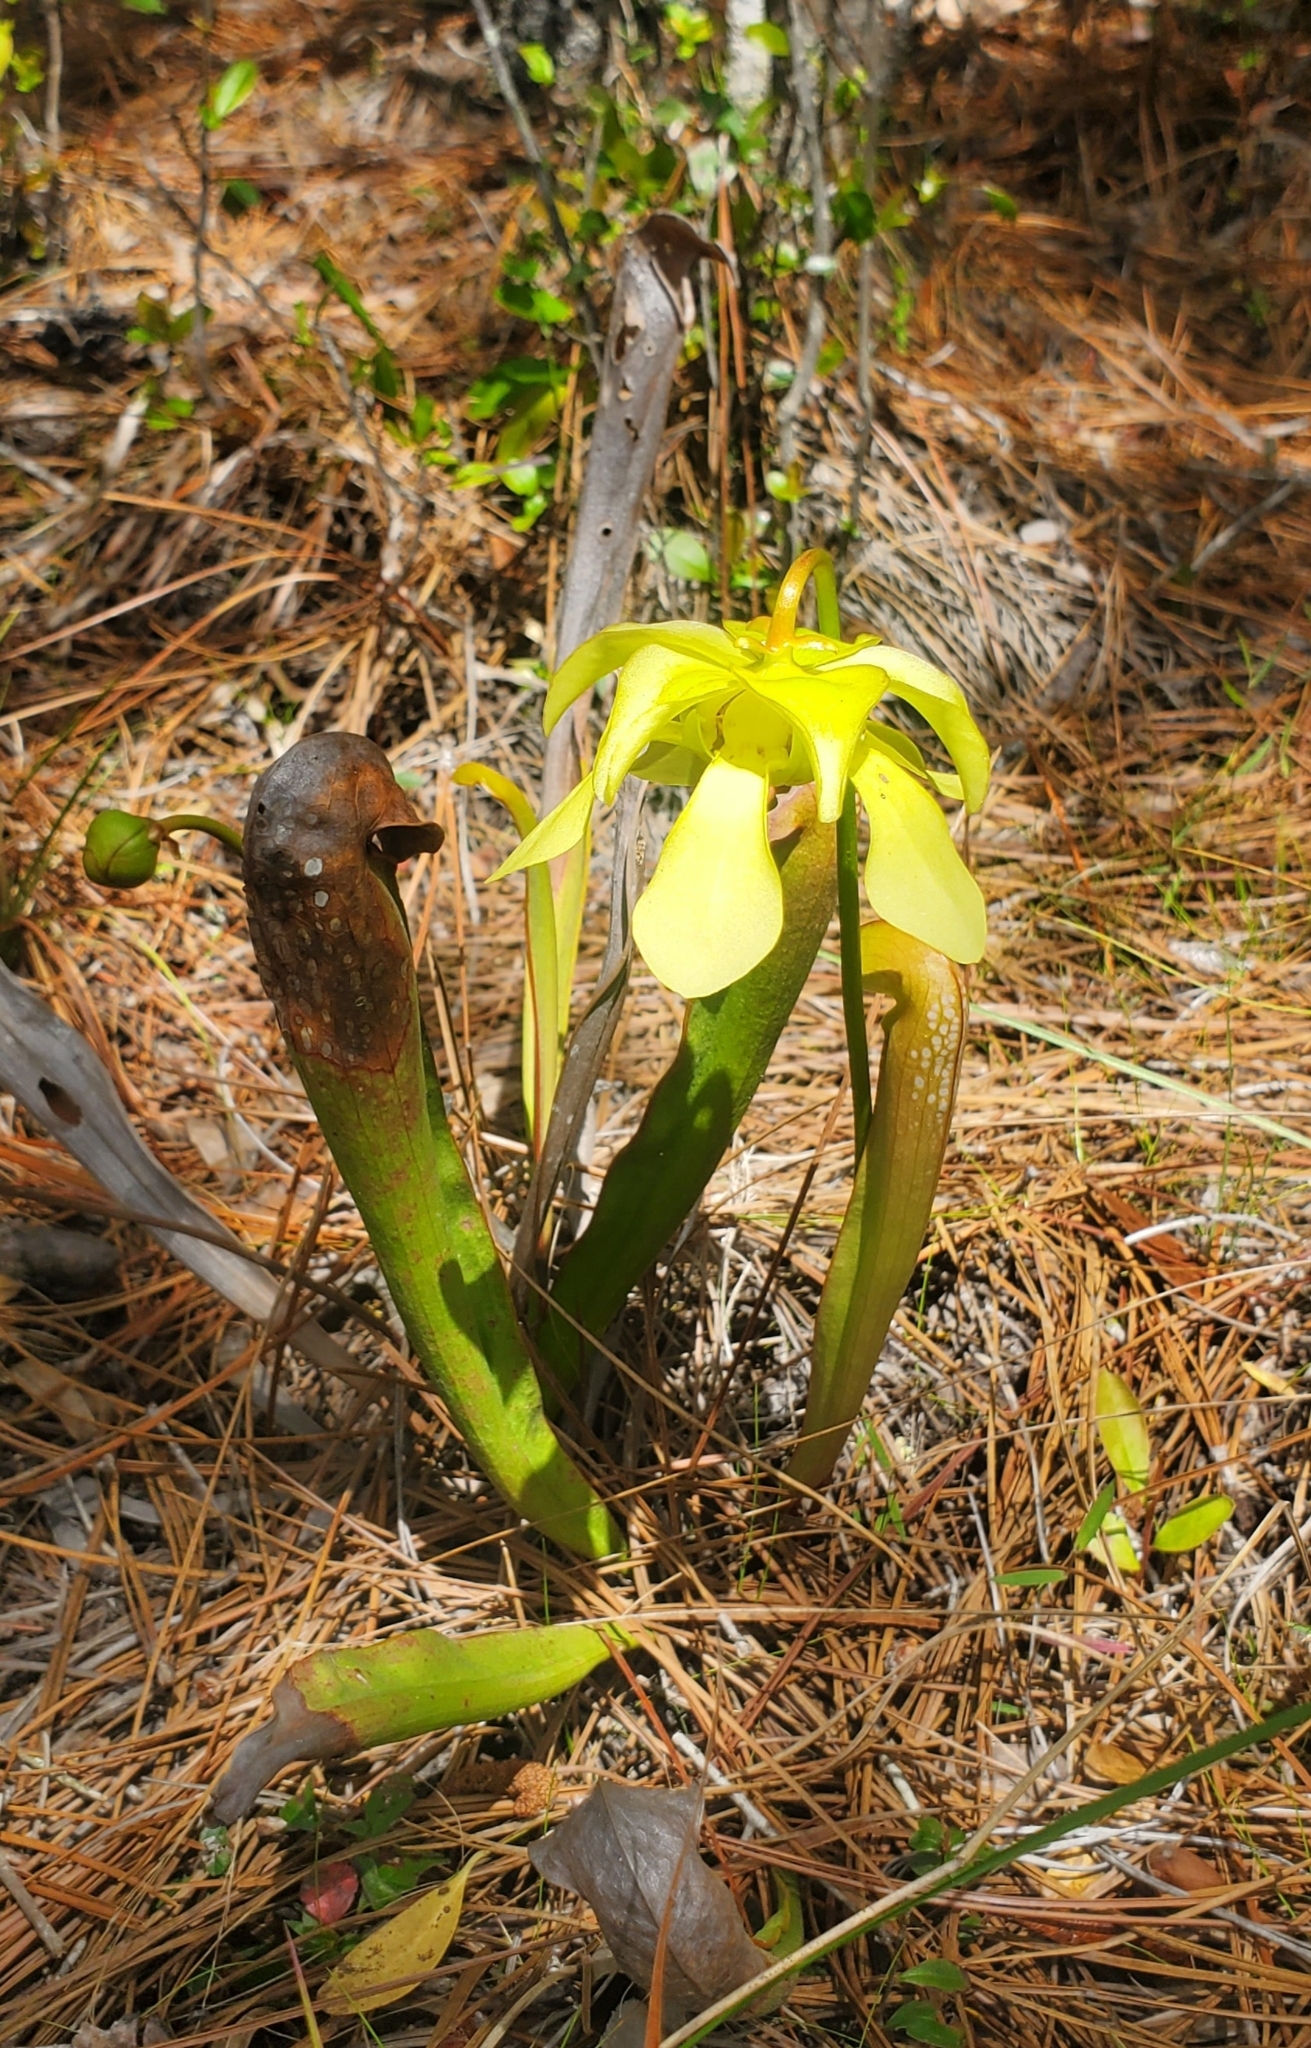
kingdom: Plantae
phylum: Tracheophyta
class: Magnoliopsida
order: Ericales
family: Sarraceniaceae
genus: Sarracenia
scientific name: Sarracenia minor
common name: Rainhat-trumpet
